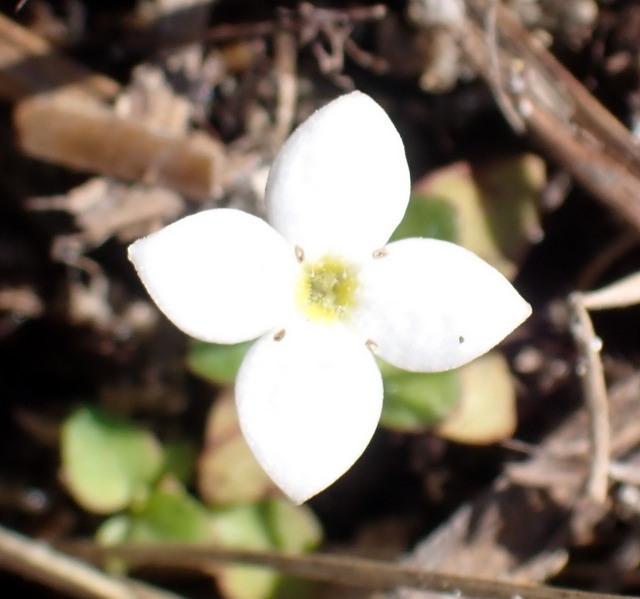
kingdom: Plantae
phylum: Tracheophyta
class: Magnoliopsida
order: Gentianales
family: Rubiaceae
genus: Houstonia
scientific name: Houstonia procumbens
